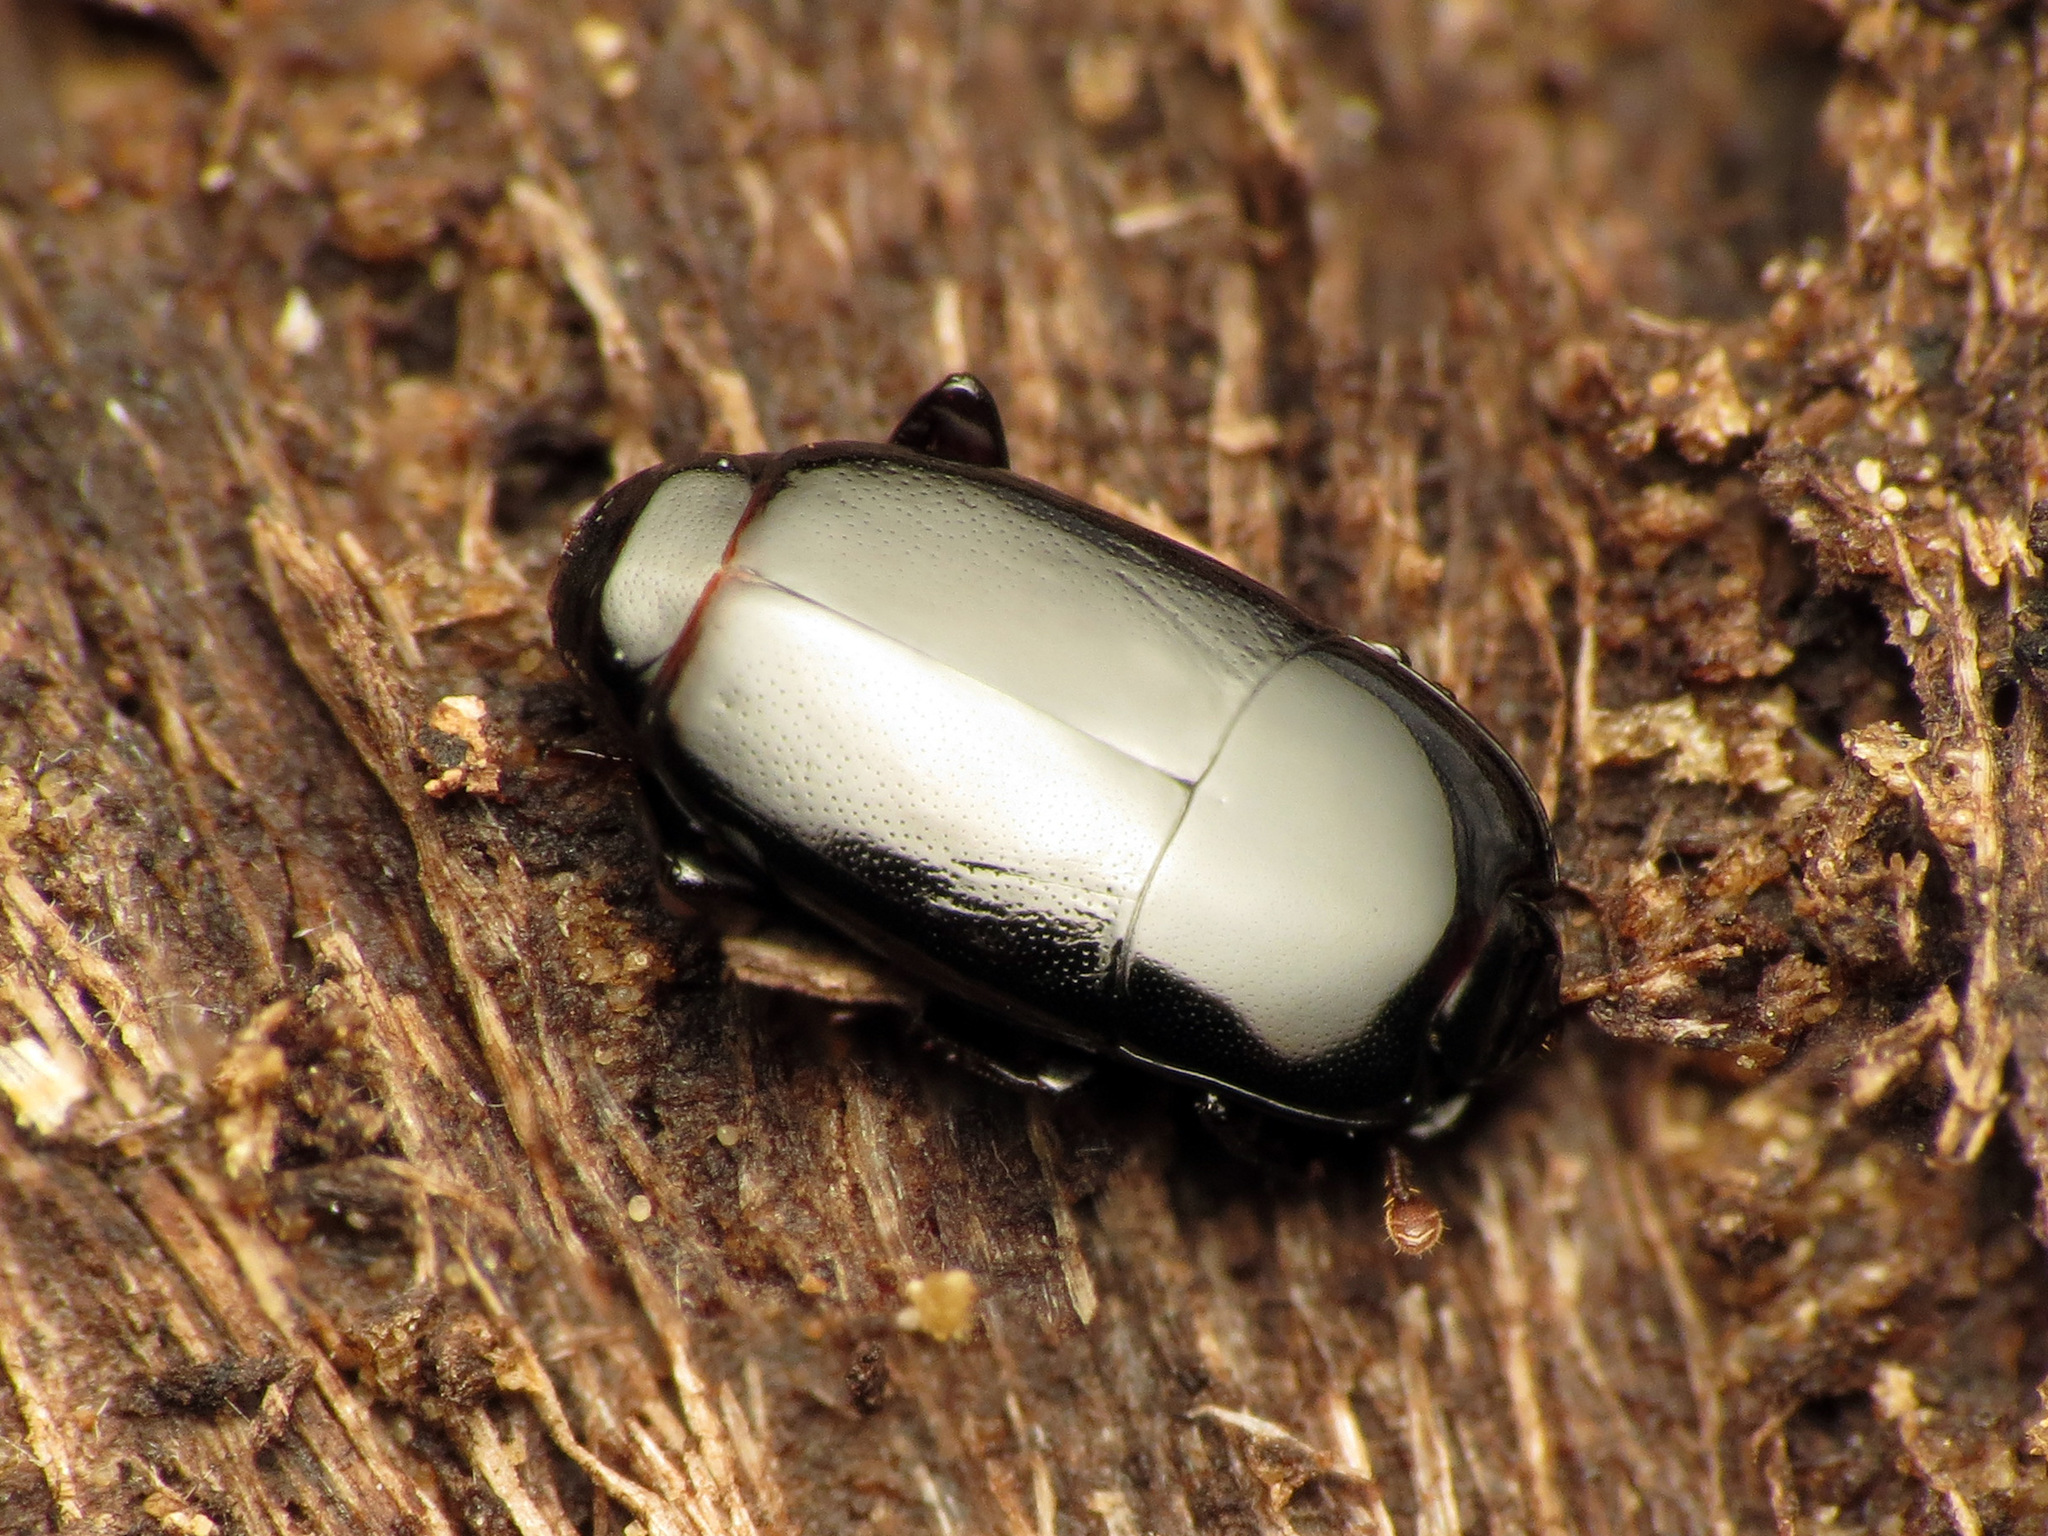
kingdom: Animalia
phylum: Arthropoda
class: Insecta
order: Coleoptera
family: Histeridae
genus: Platylomalus
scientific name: Platylomalus aequalis
